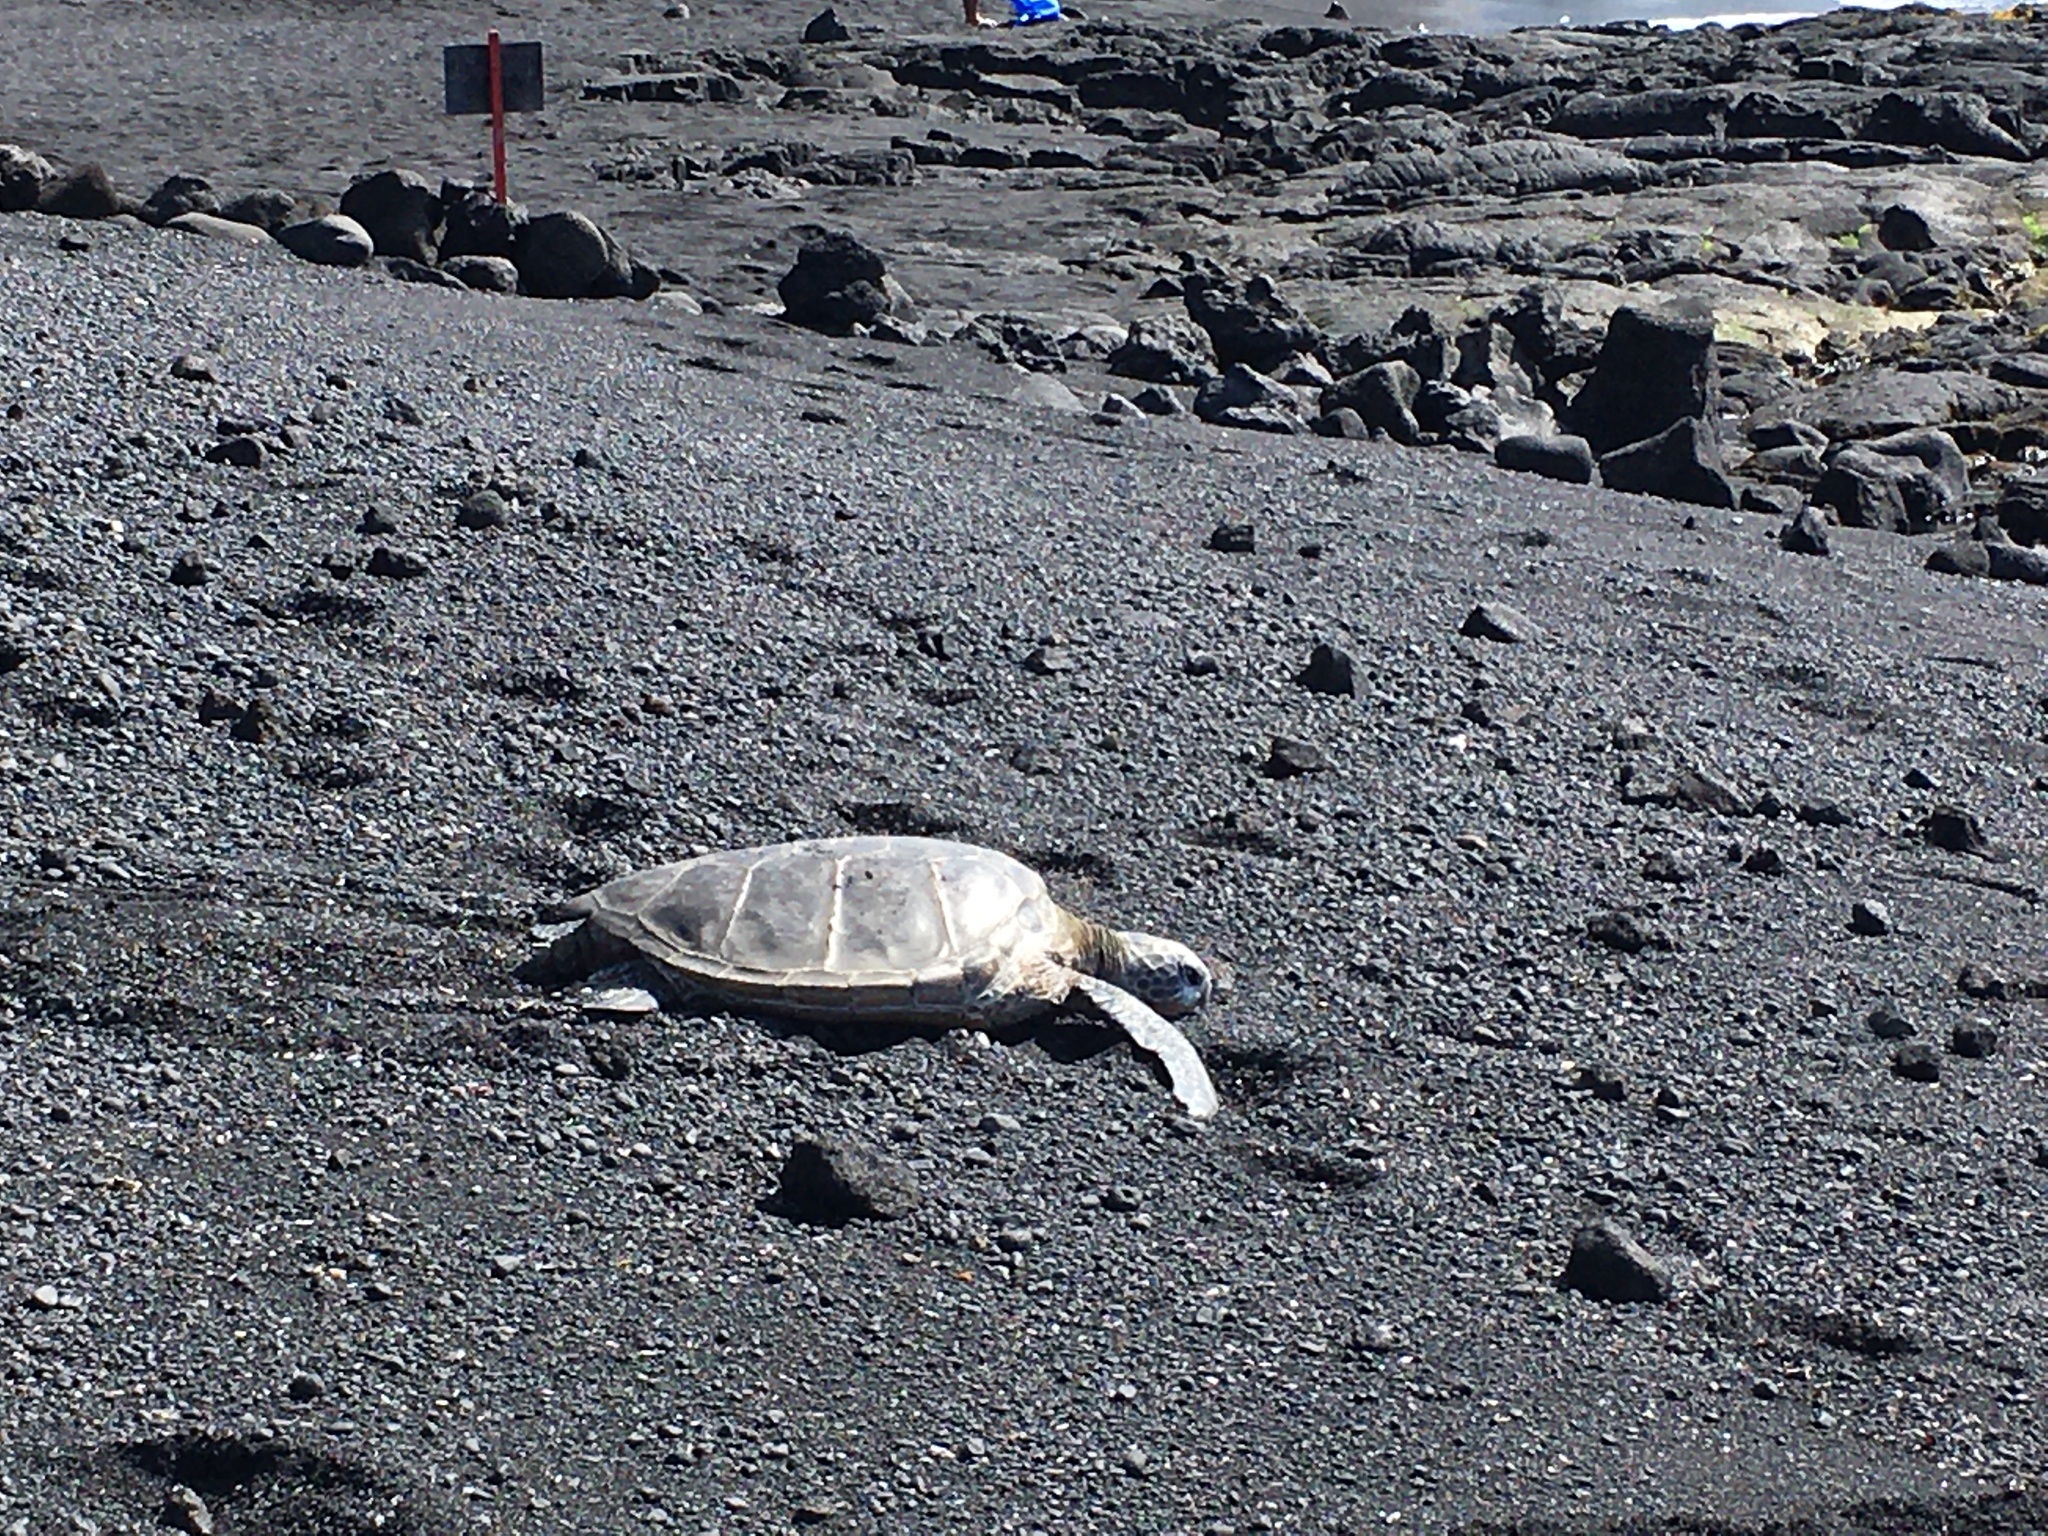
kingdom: Animalia
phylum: Chordata
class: Testudines
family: Cheloniidae
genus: Chelonia
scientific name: Chelonia mydas
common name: Green turtle
